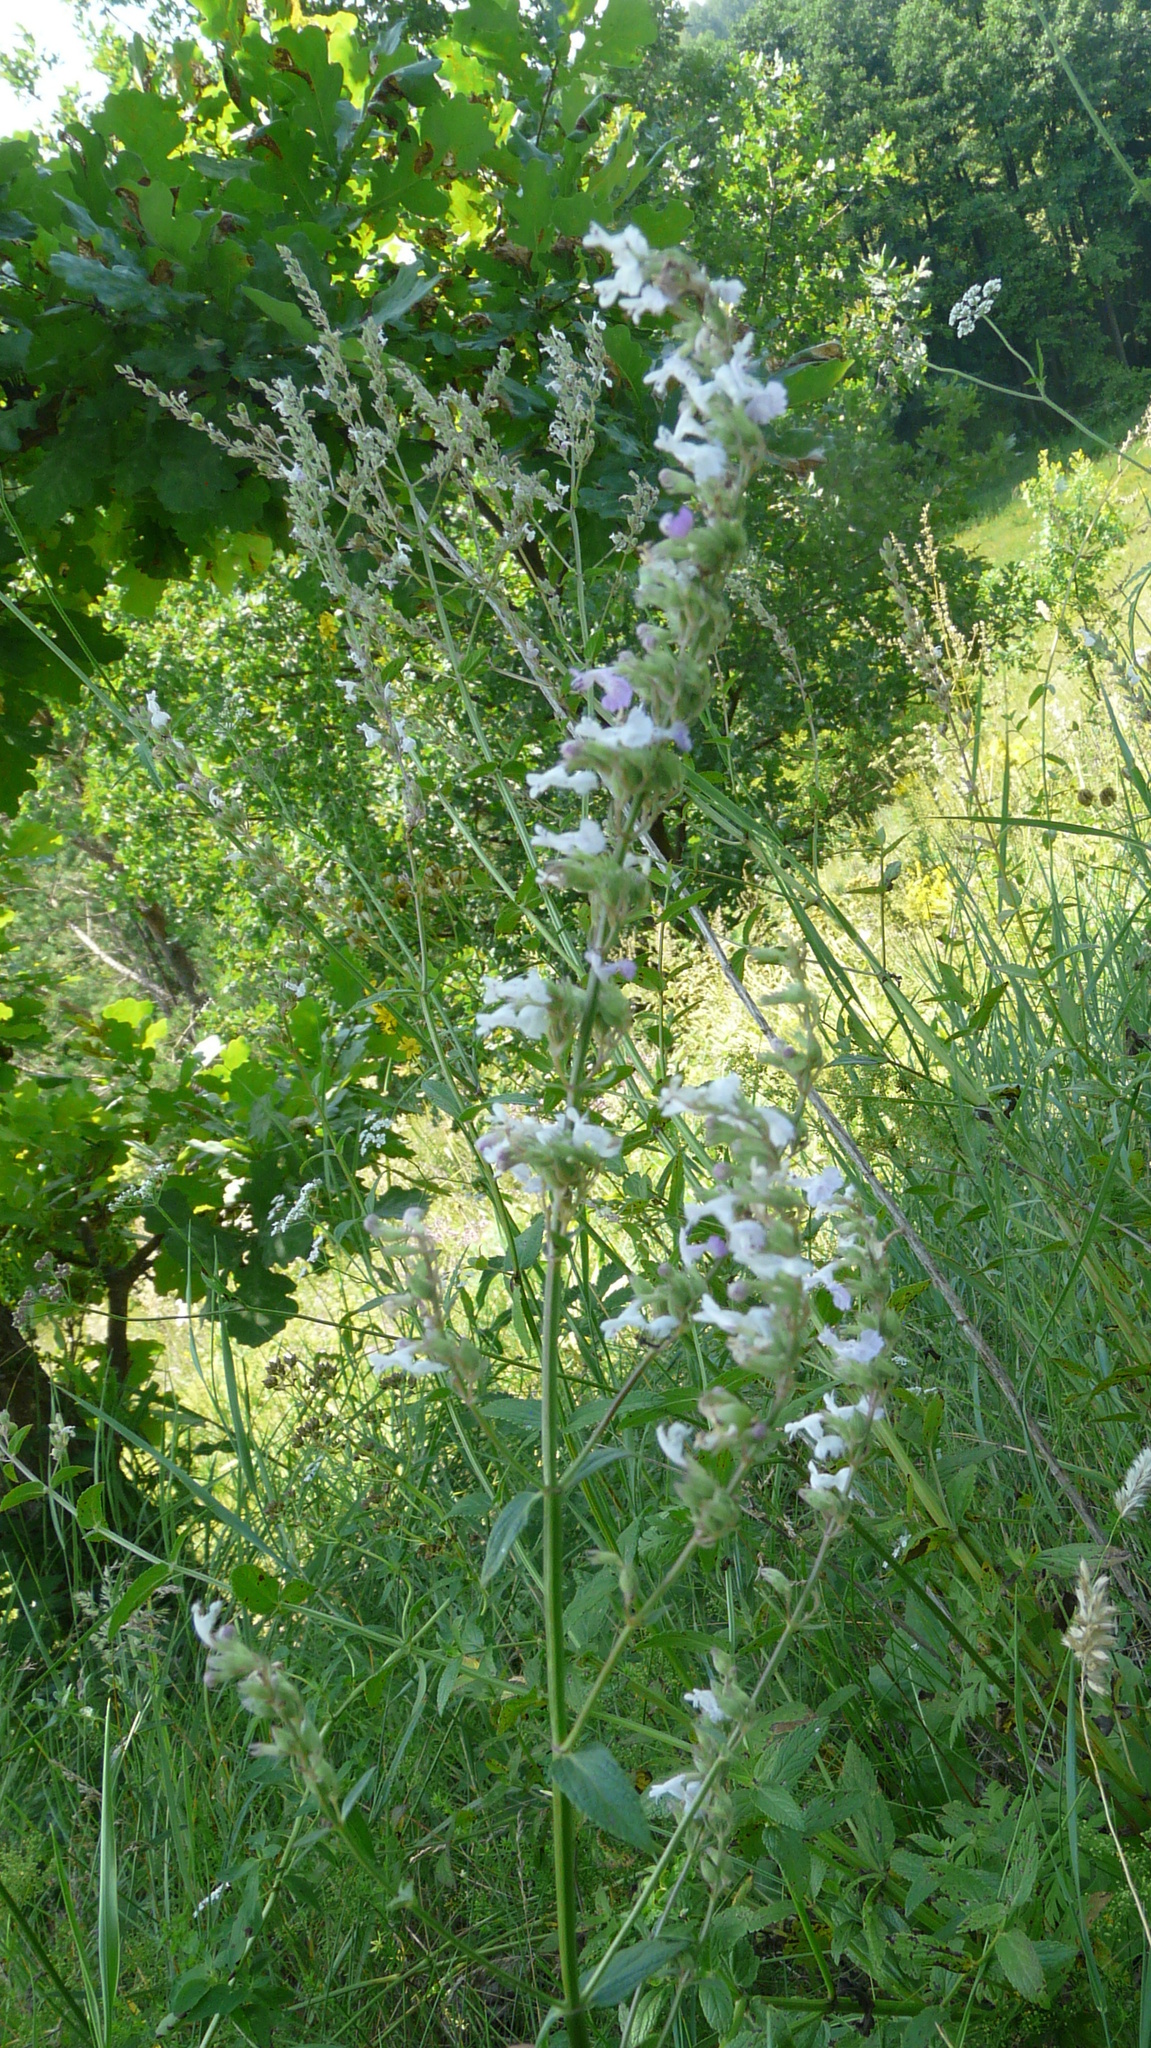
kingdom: Plantae
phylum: Tracheophyta
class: Magnoliopsida
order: Lamiales
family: Lamiaceae
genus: Nepeta
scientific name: Nepeta nuda
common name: Hairless catmint
